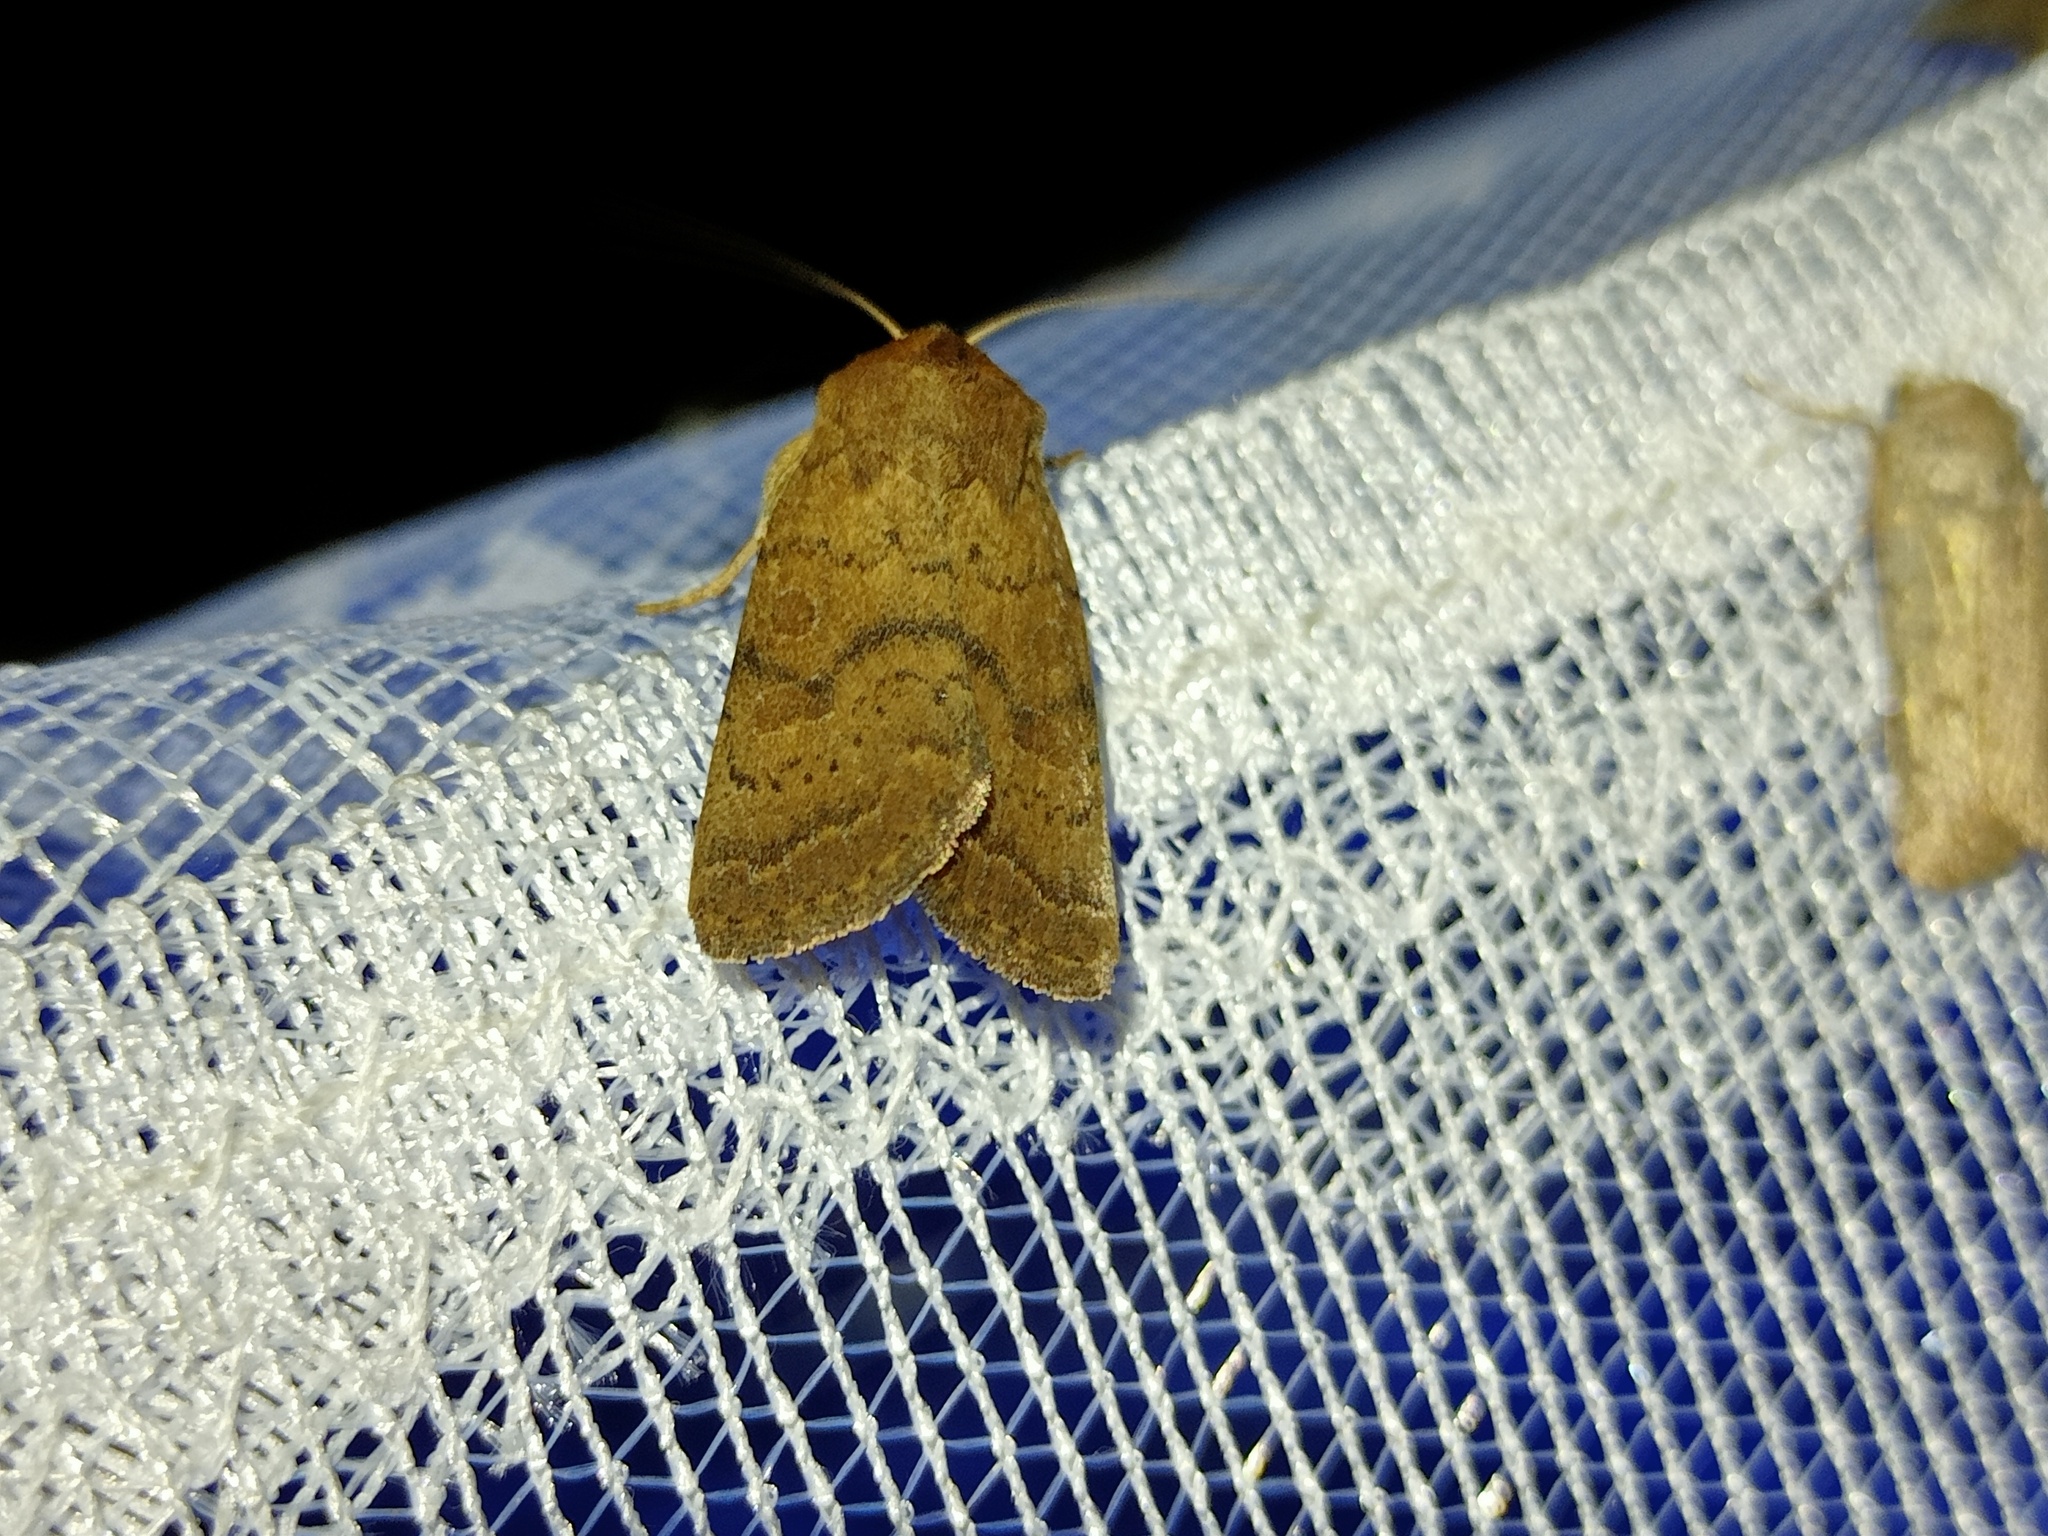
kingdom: Animalia
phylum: Arthropoda
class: Insecta
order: Lepidoptera
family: Noctuidae
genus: Hoplodrina
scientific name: Hoplodrina octogenaria
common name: Uncertain
